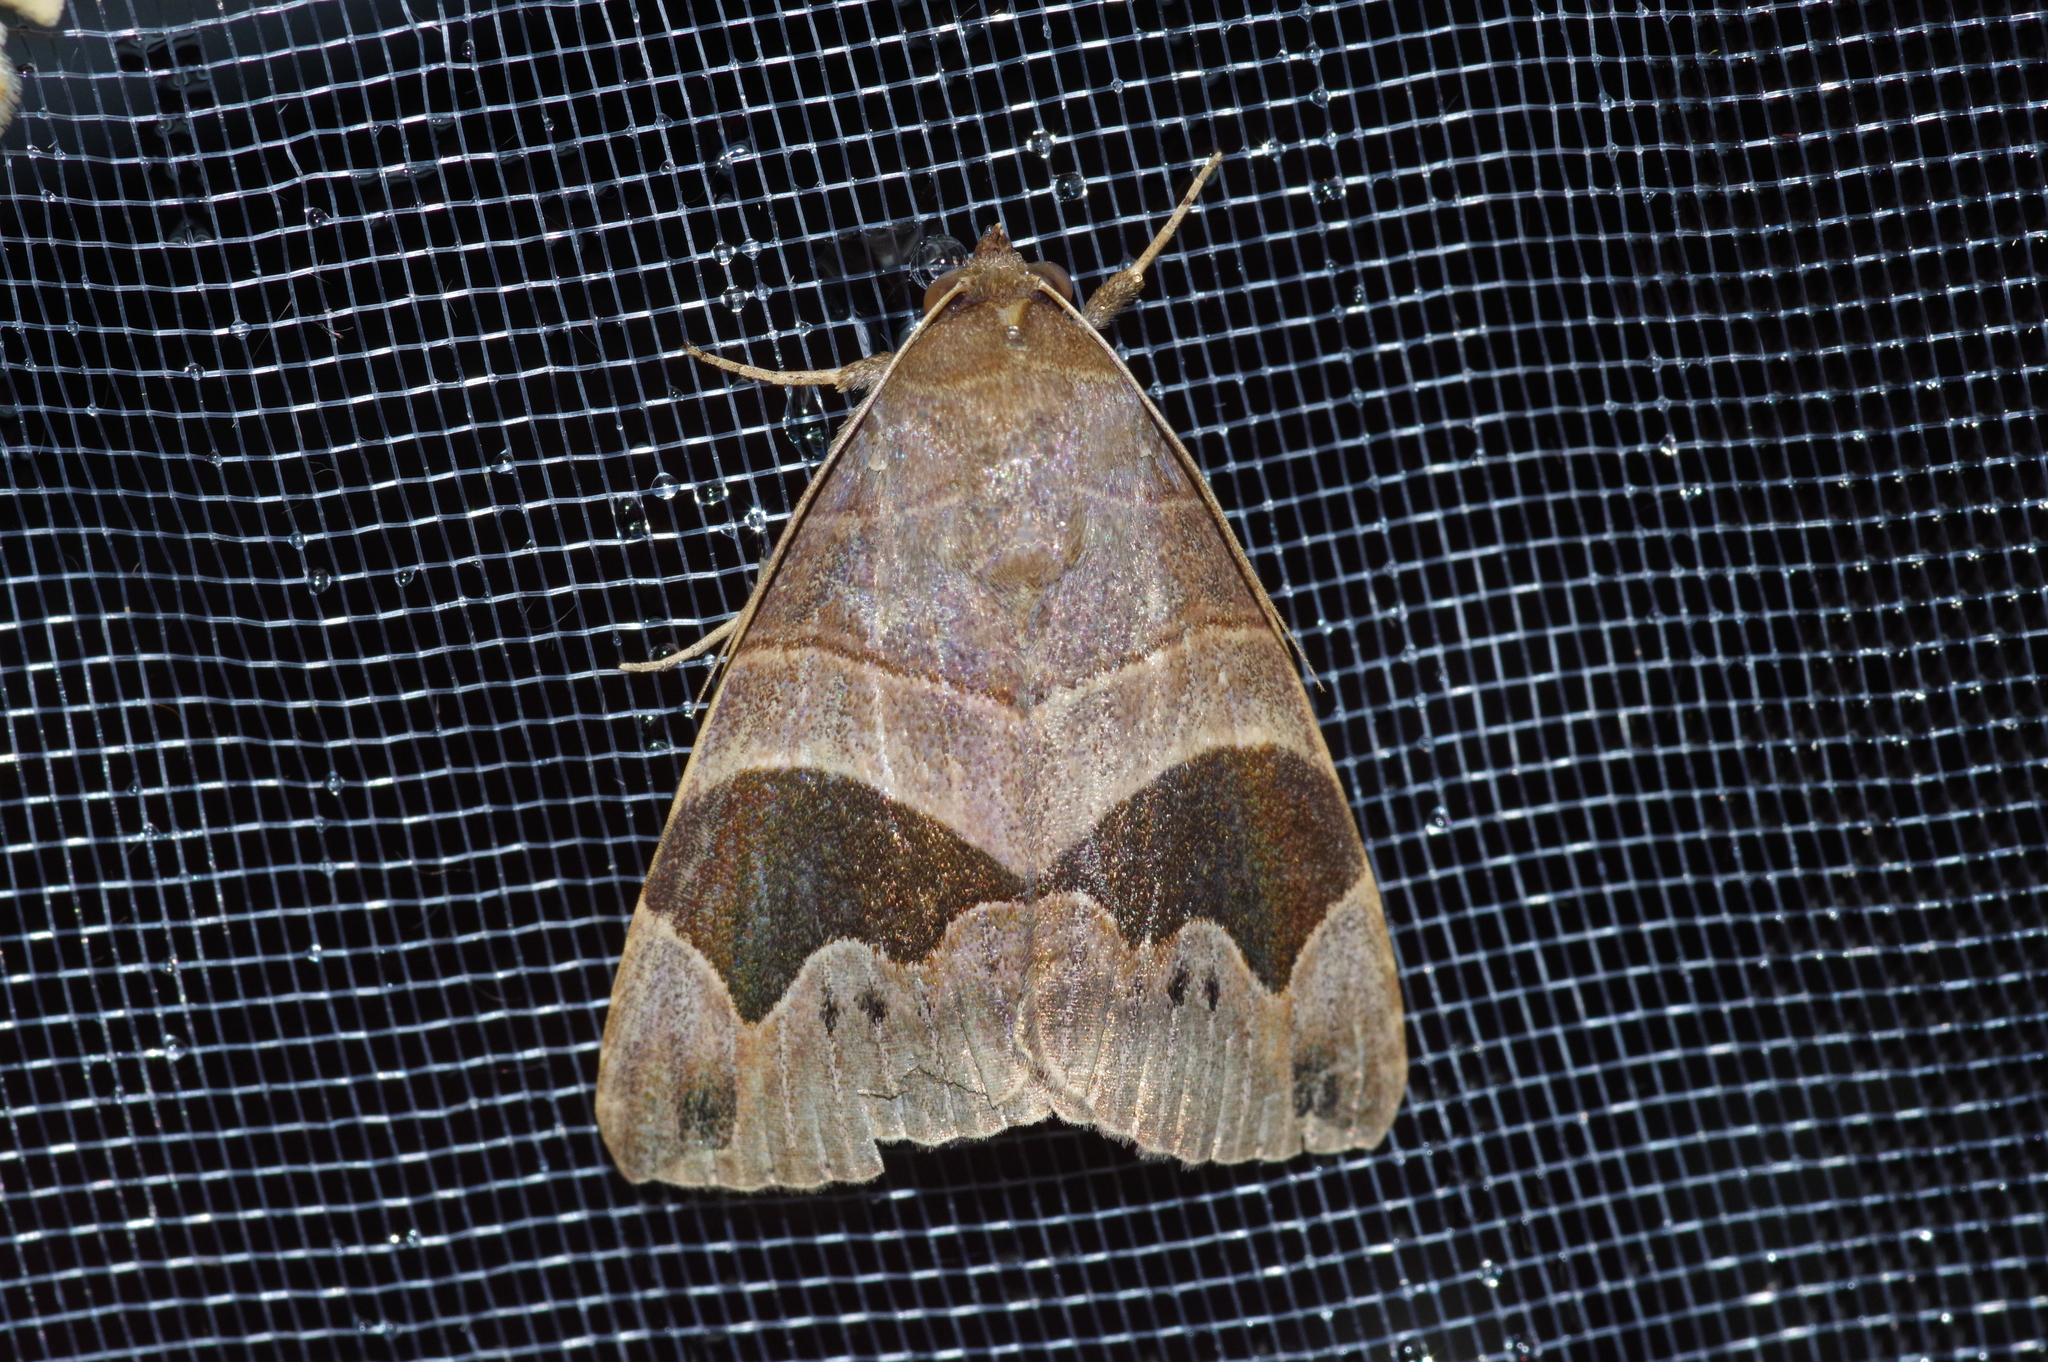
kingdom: Animalia
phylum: Arthropoda
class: Insecta
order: Lepidoptera
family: Erebidae
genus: Bastilla
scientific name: Bastilla joviana
